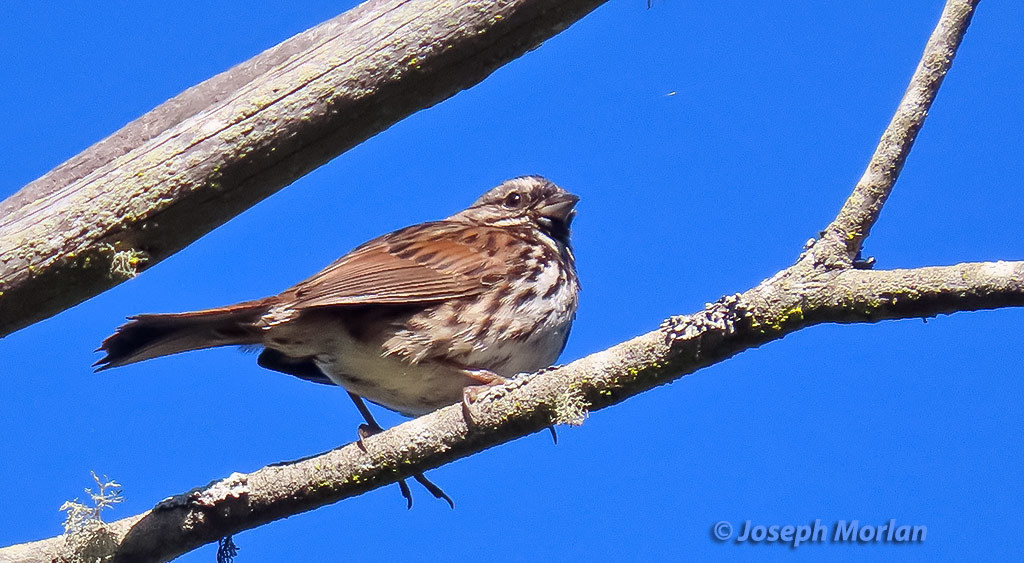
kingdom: Animalia
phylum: Chordata
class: Aves
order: Passeriformes
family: Passerellidae
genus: Melospiza
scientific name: Melospiza melodia
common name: Song sparrow
